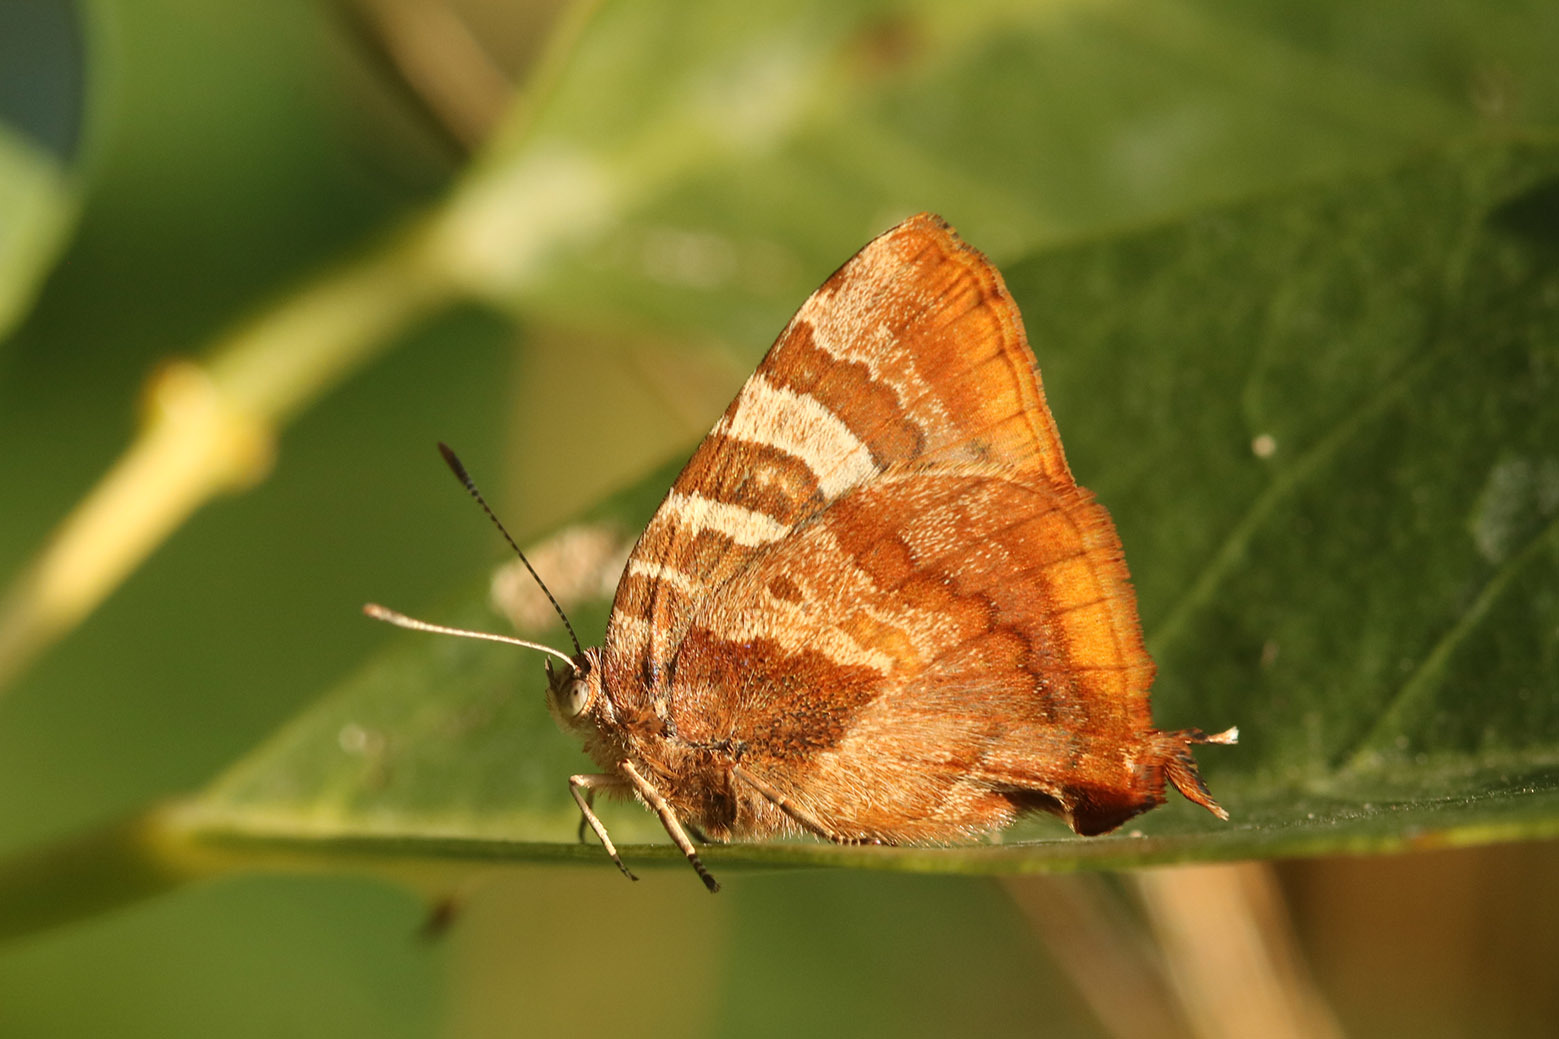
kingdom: Animalia
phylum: Arthropoda
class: Insecta
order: Lepidoptera
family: Lycaenidae
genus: Arawacus
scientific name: Arawacus ellida
